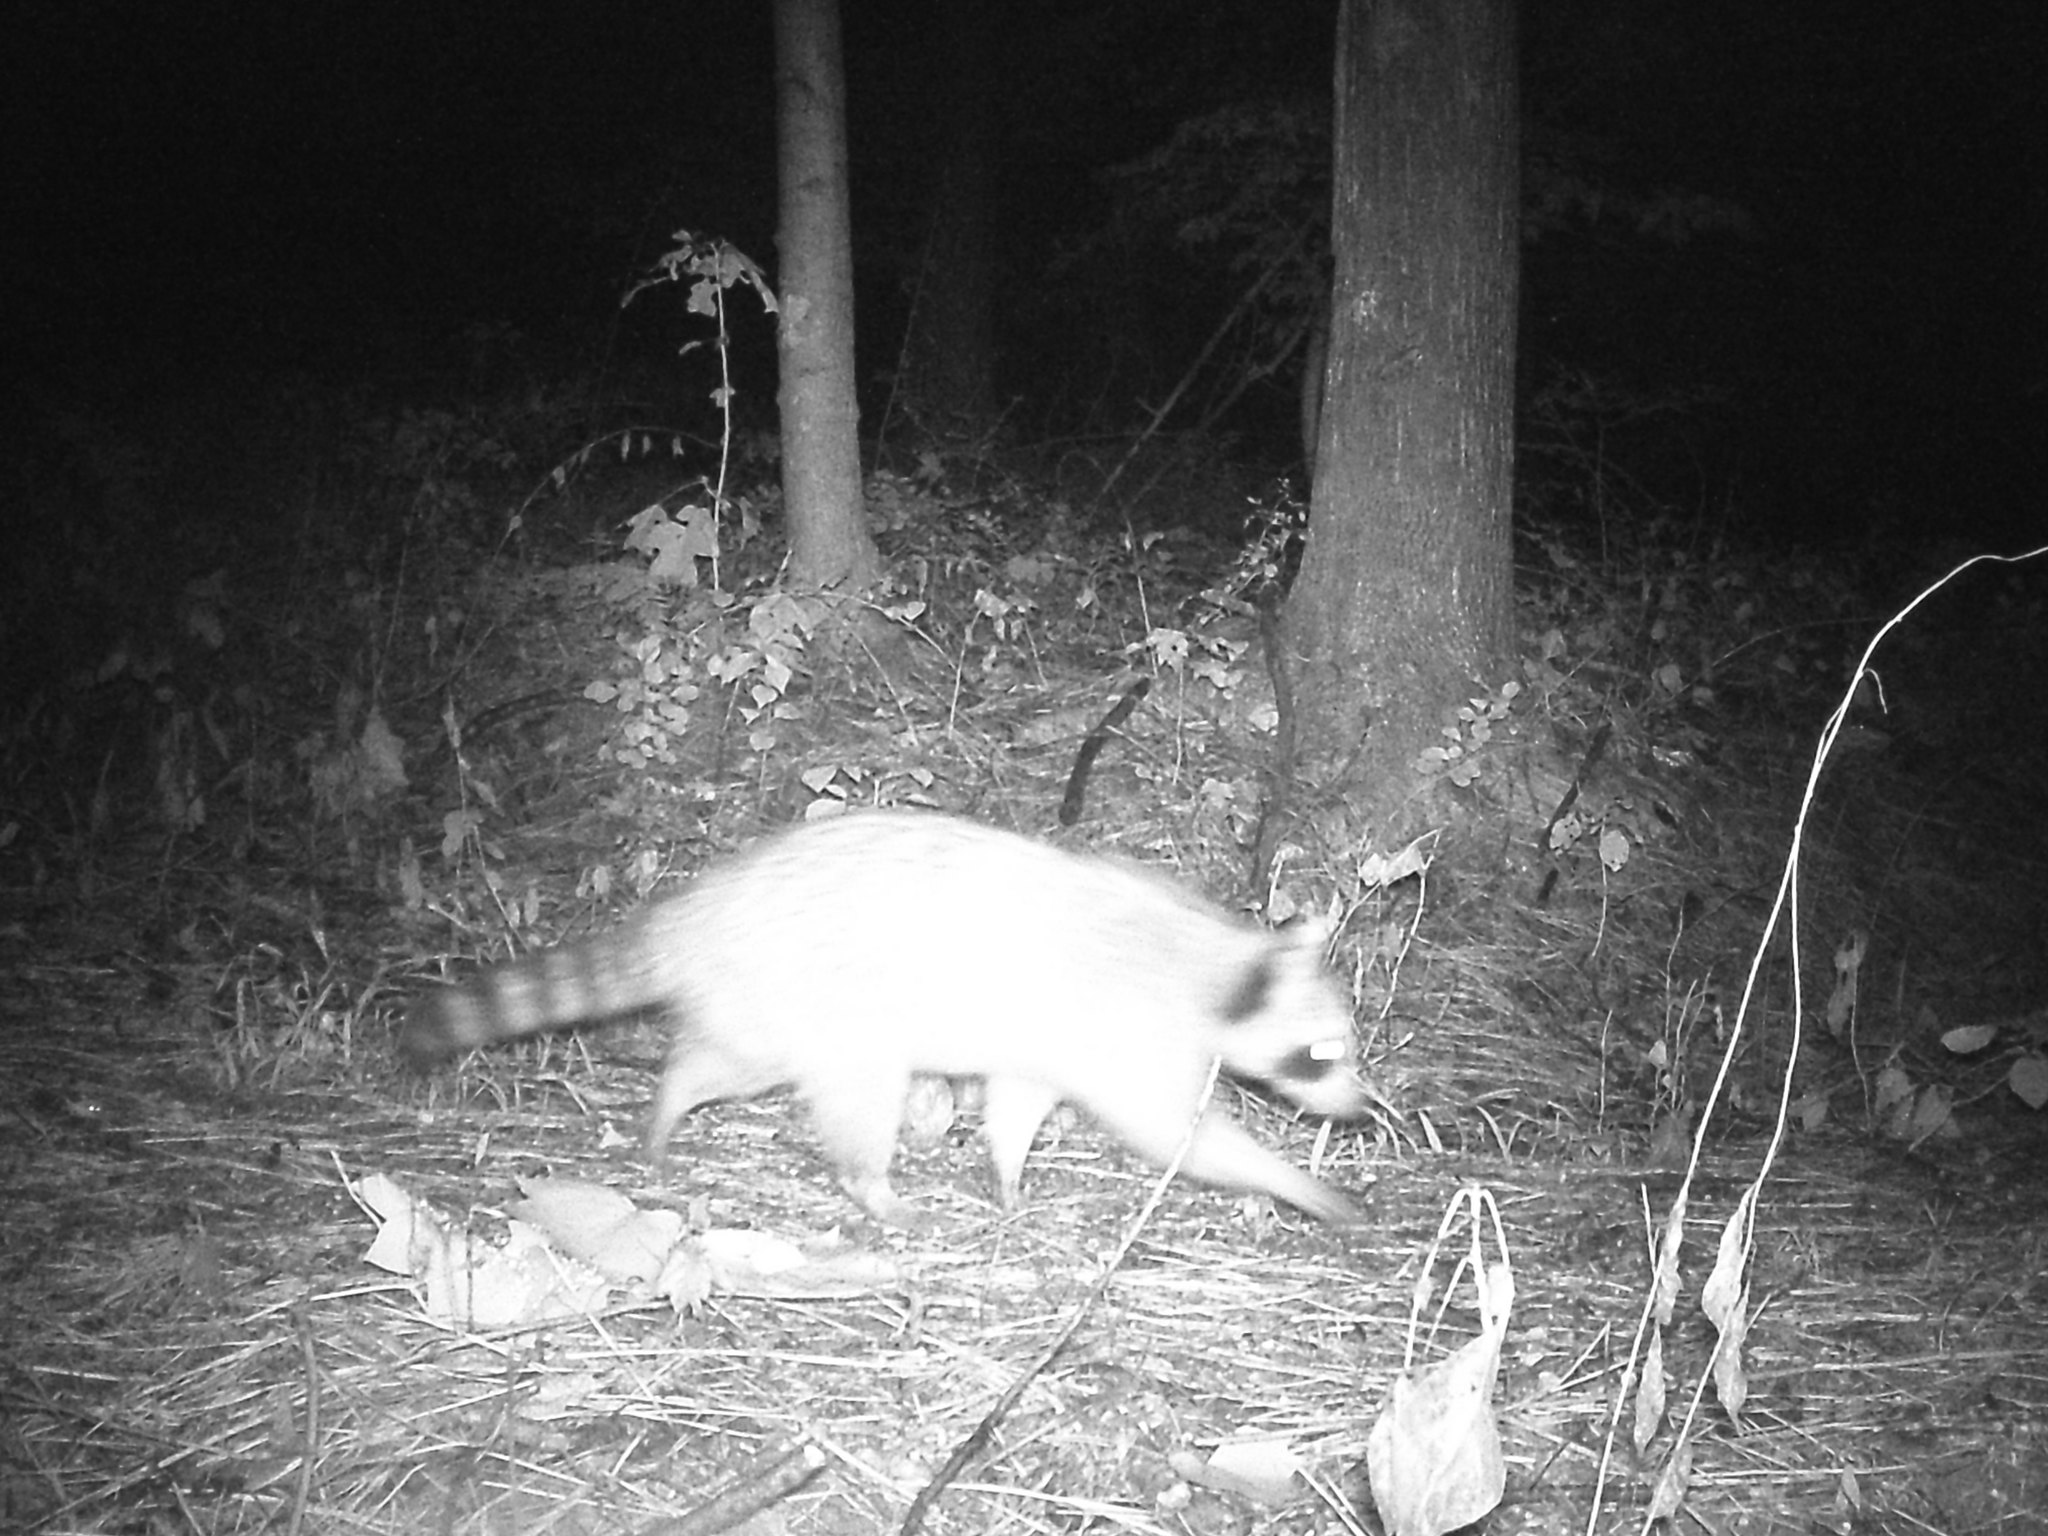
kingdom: Animalia
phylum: Chordata
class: Mammalia
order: Carnivora
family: Procyonidae
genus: Procyon
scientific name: Procyon lotor
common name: Raccoon
